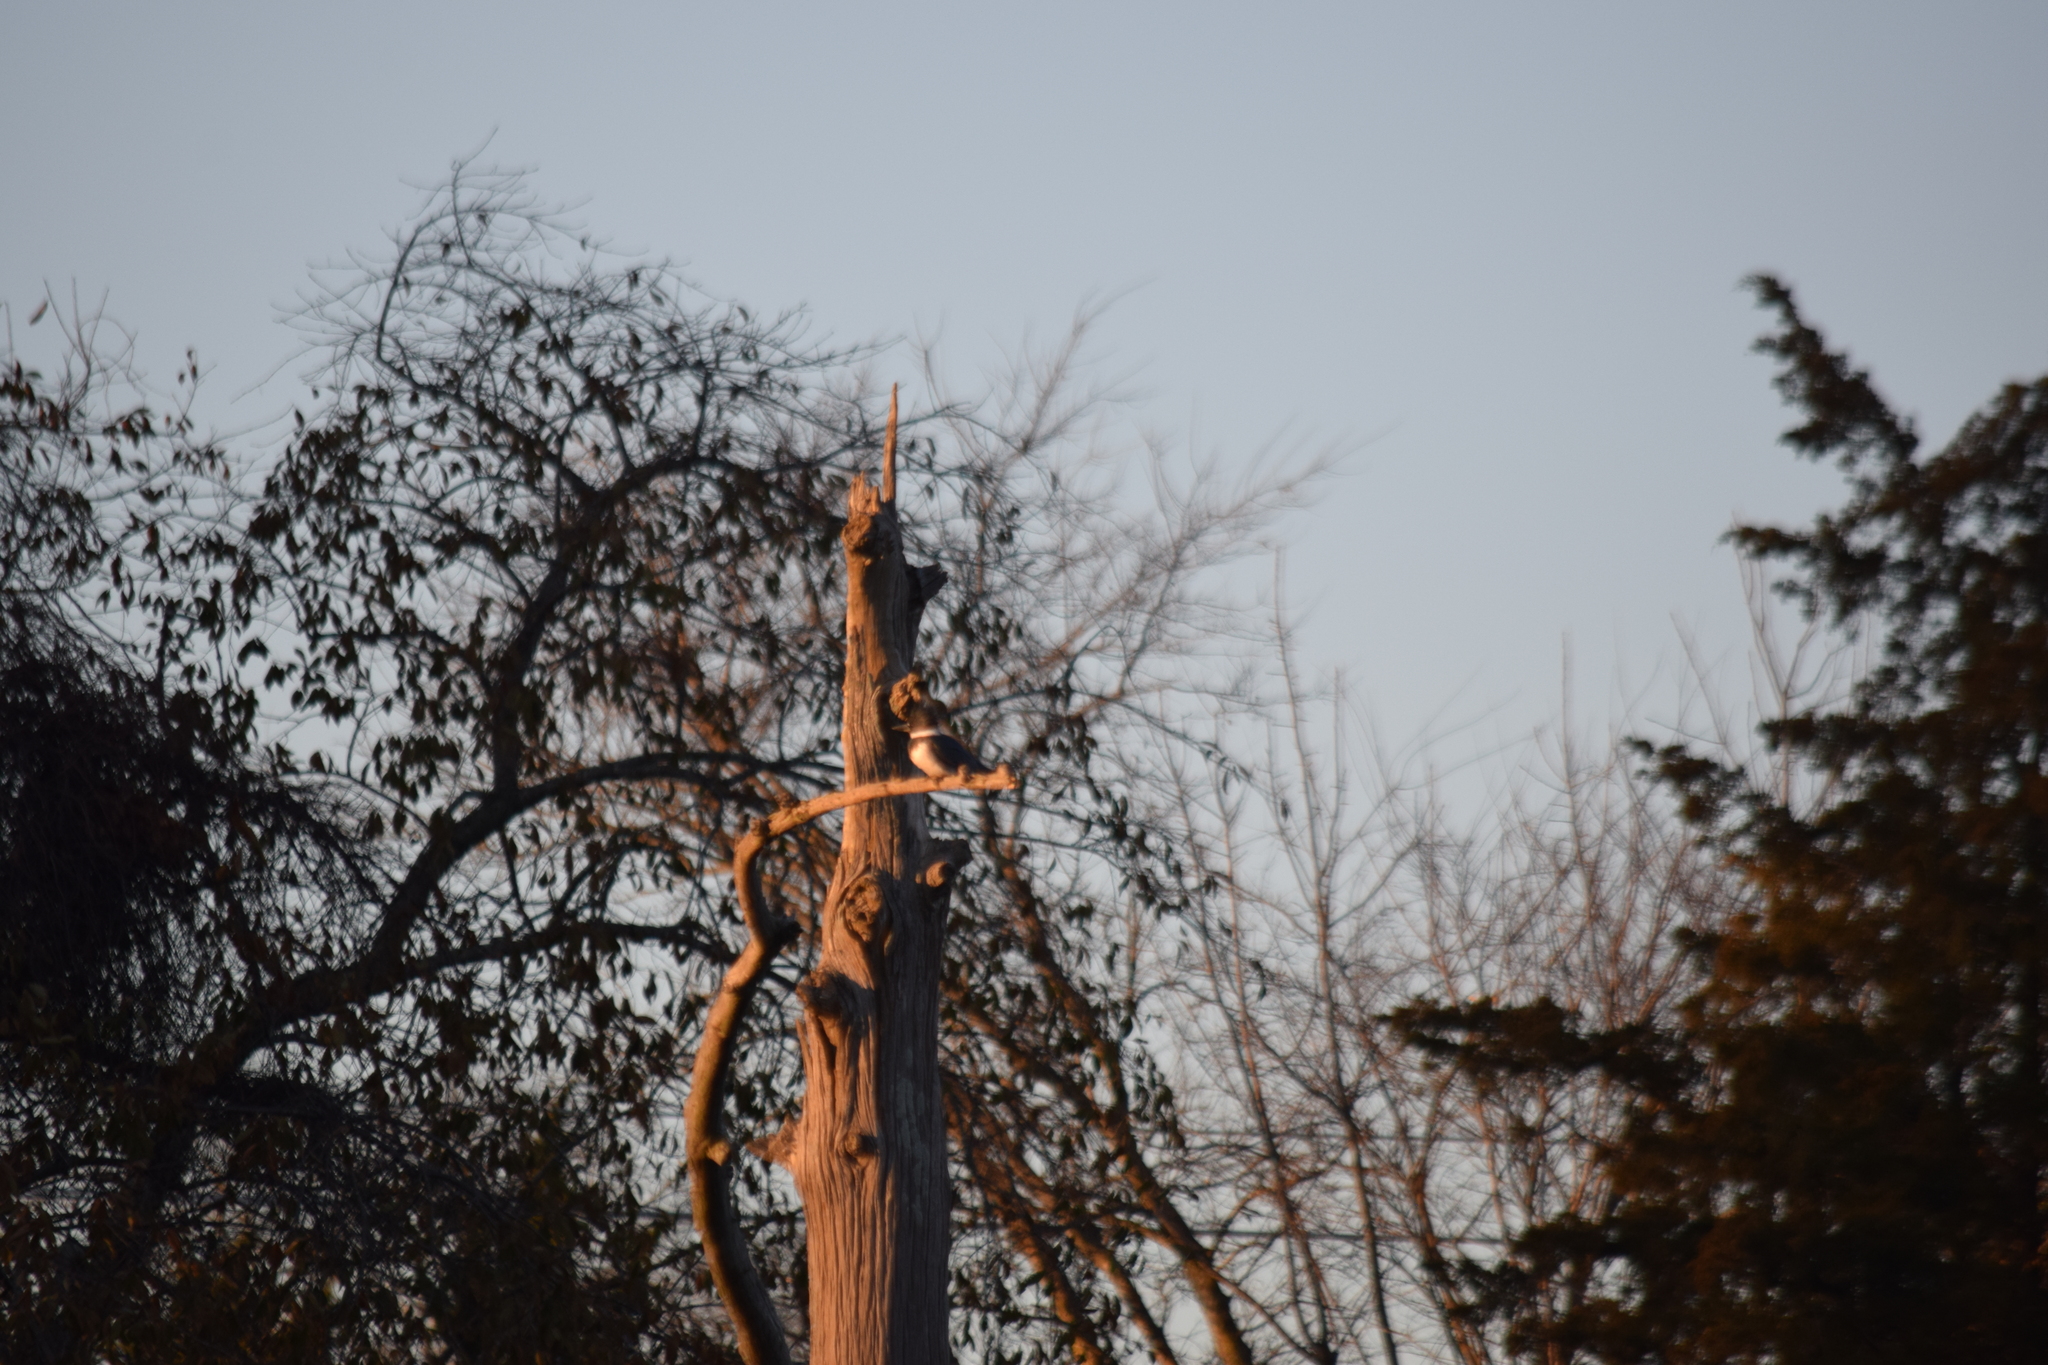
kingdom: Animalia
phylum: Chordata
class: Aves
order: Coraciiformes
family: Alcedinidae
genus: Megaceryle
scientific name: Megaceryle alcyon
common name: Belted kingfisher
